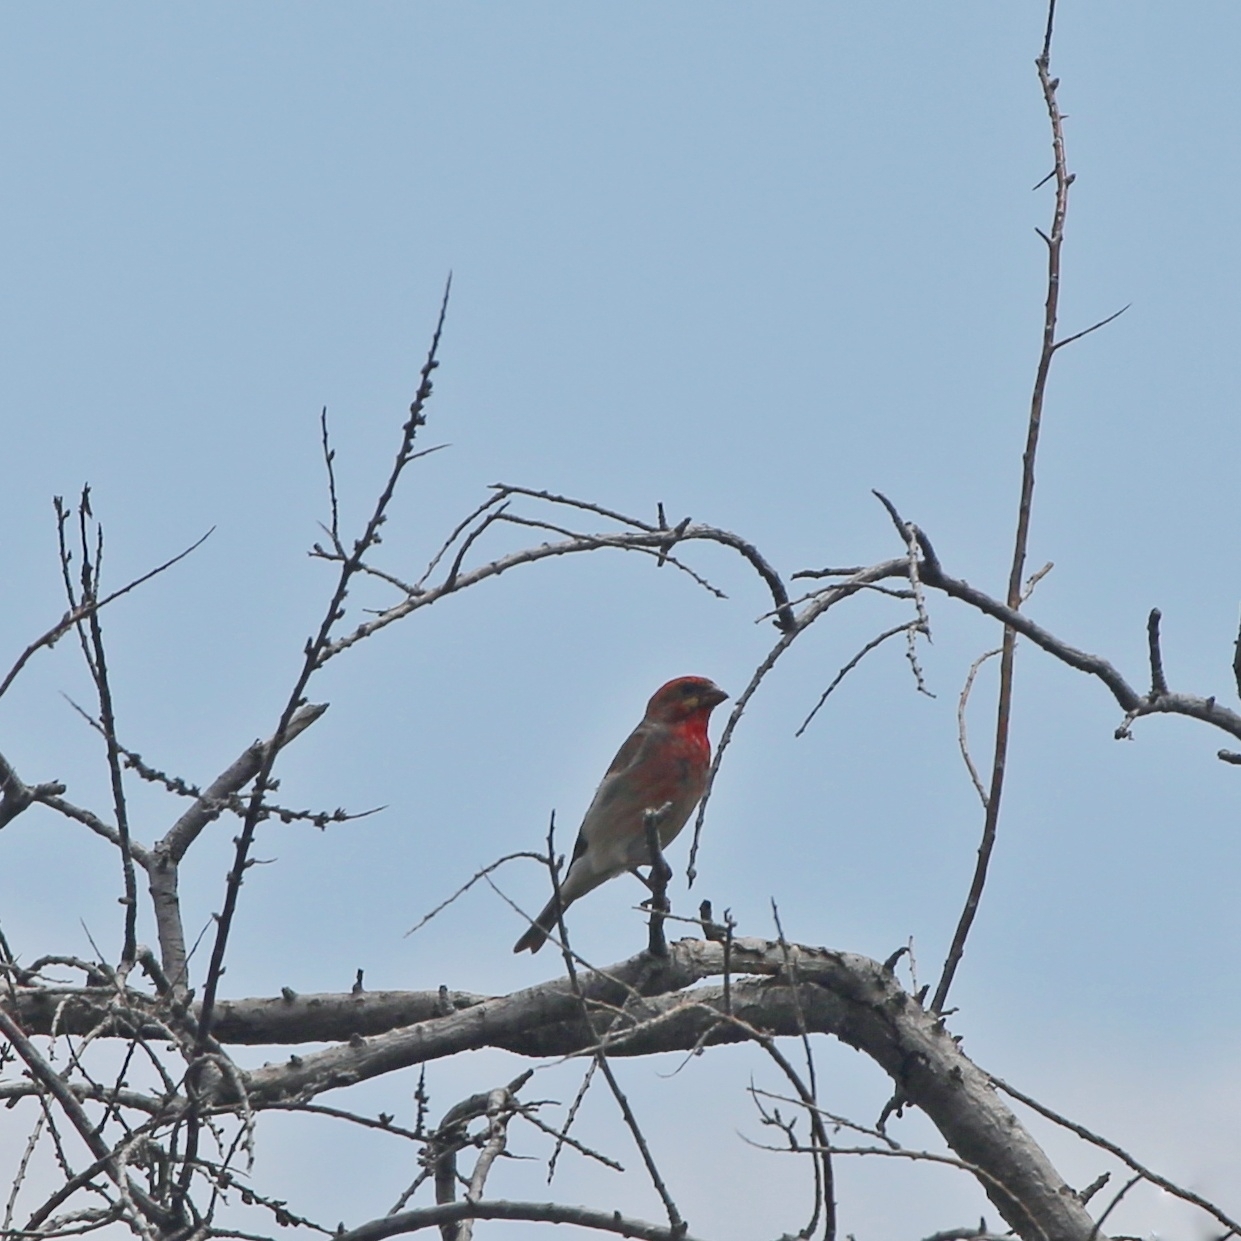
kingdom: Animalia
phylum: Chordata
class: Aves
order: Passeriformes
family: Fringillidae
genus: Carpodacus
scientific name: Carpodacus erythrinus
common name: Common rosefinch
